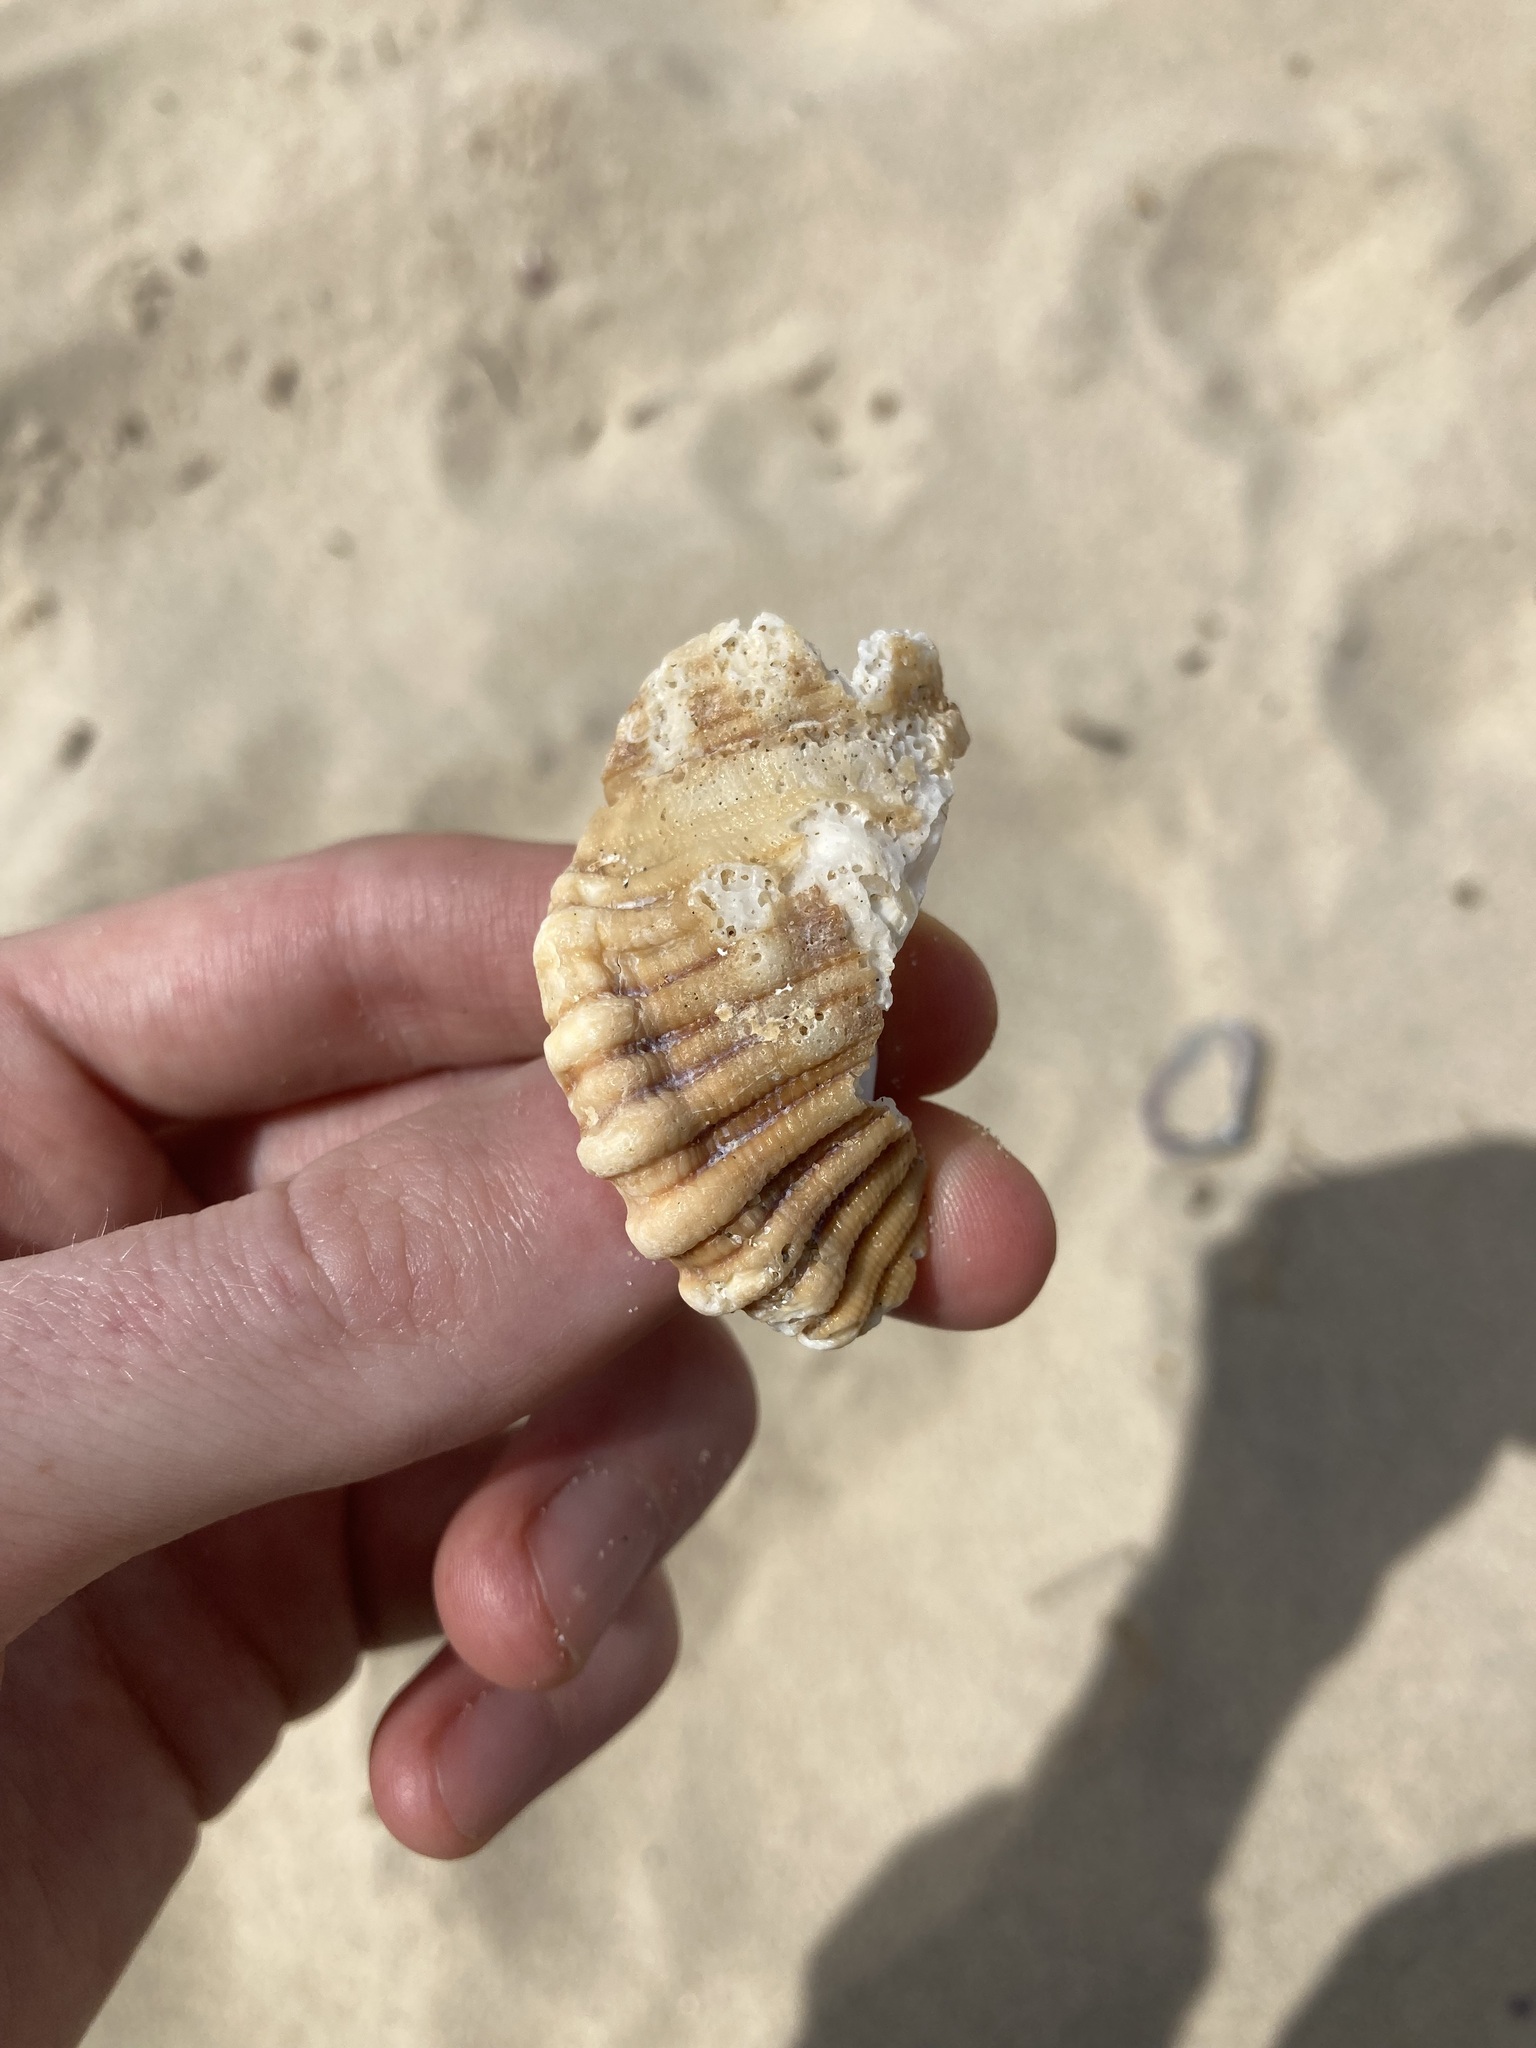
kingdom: Animalia
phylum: Mollusca
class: Gastropoda
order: Littorinimorpha
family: Cymatiidae
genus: Cabestana
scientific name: Cabestana spengleri
